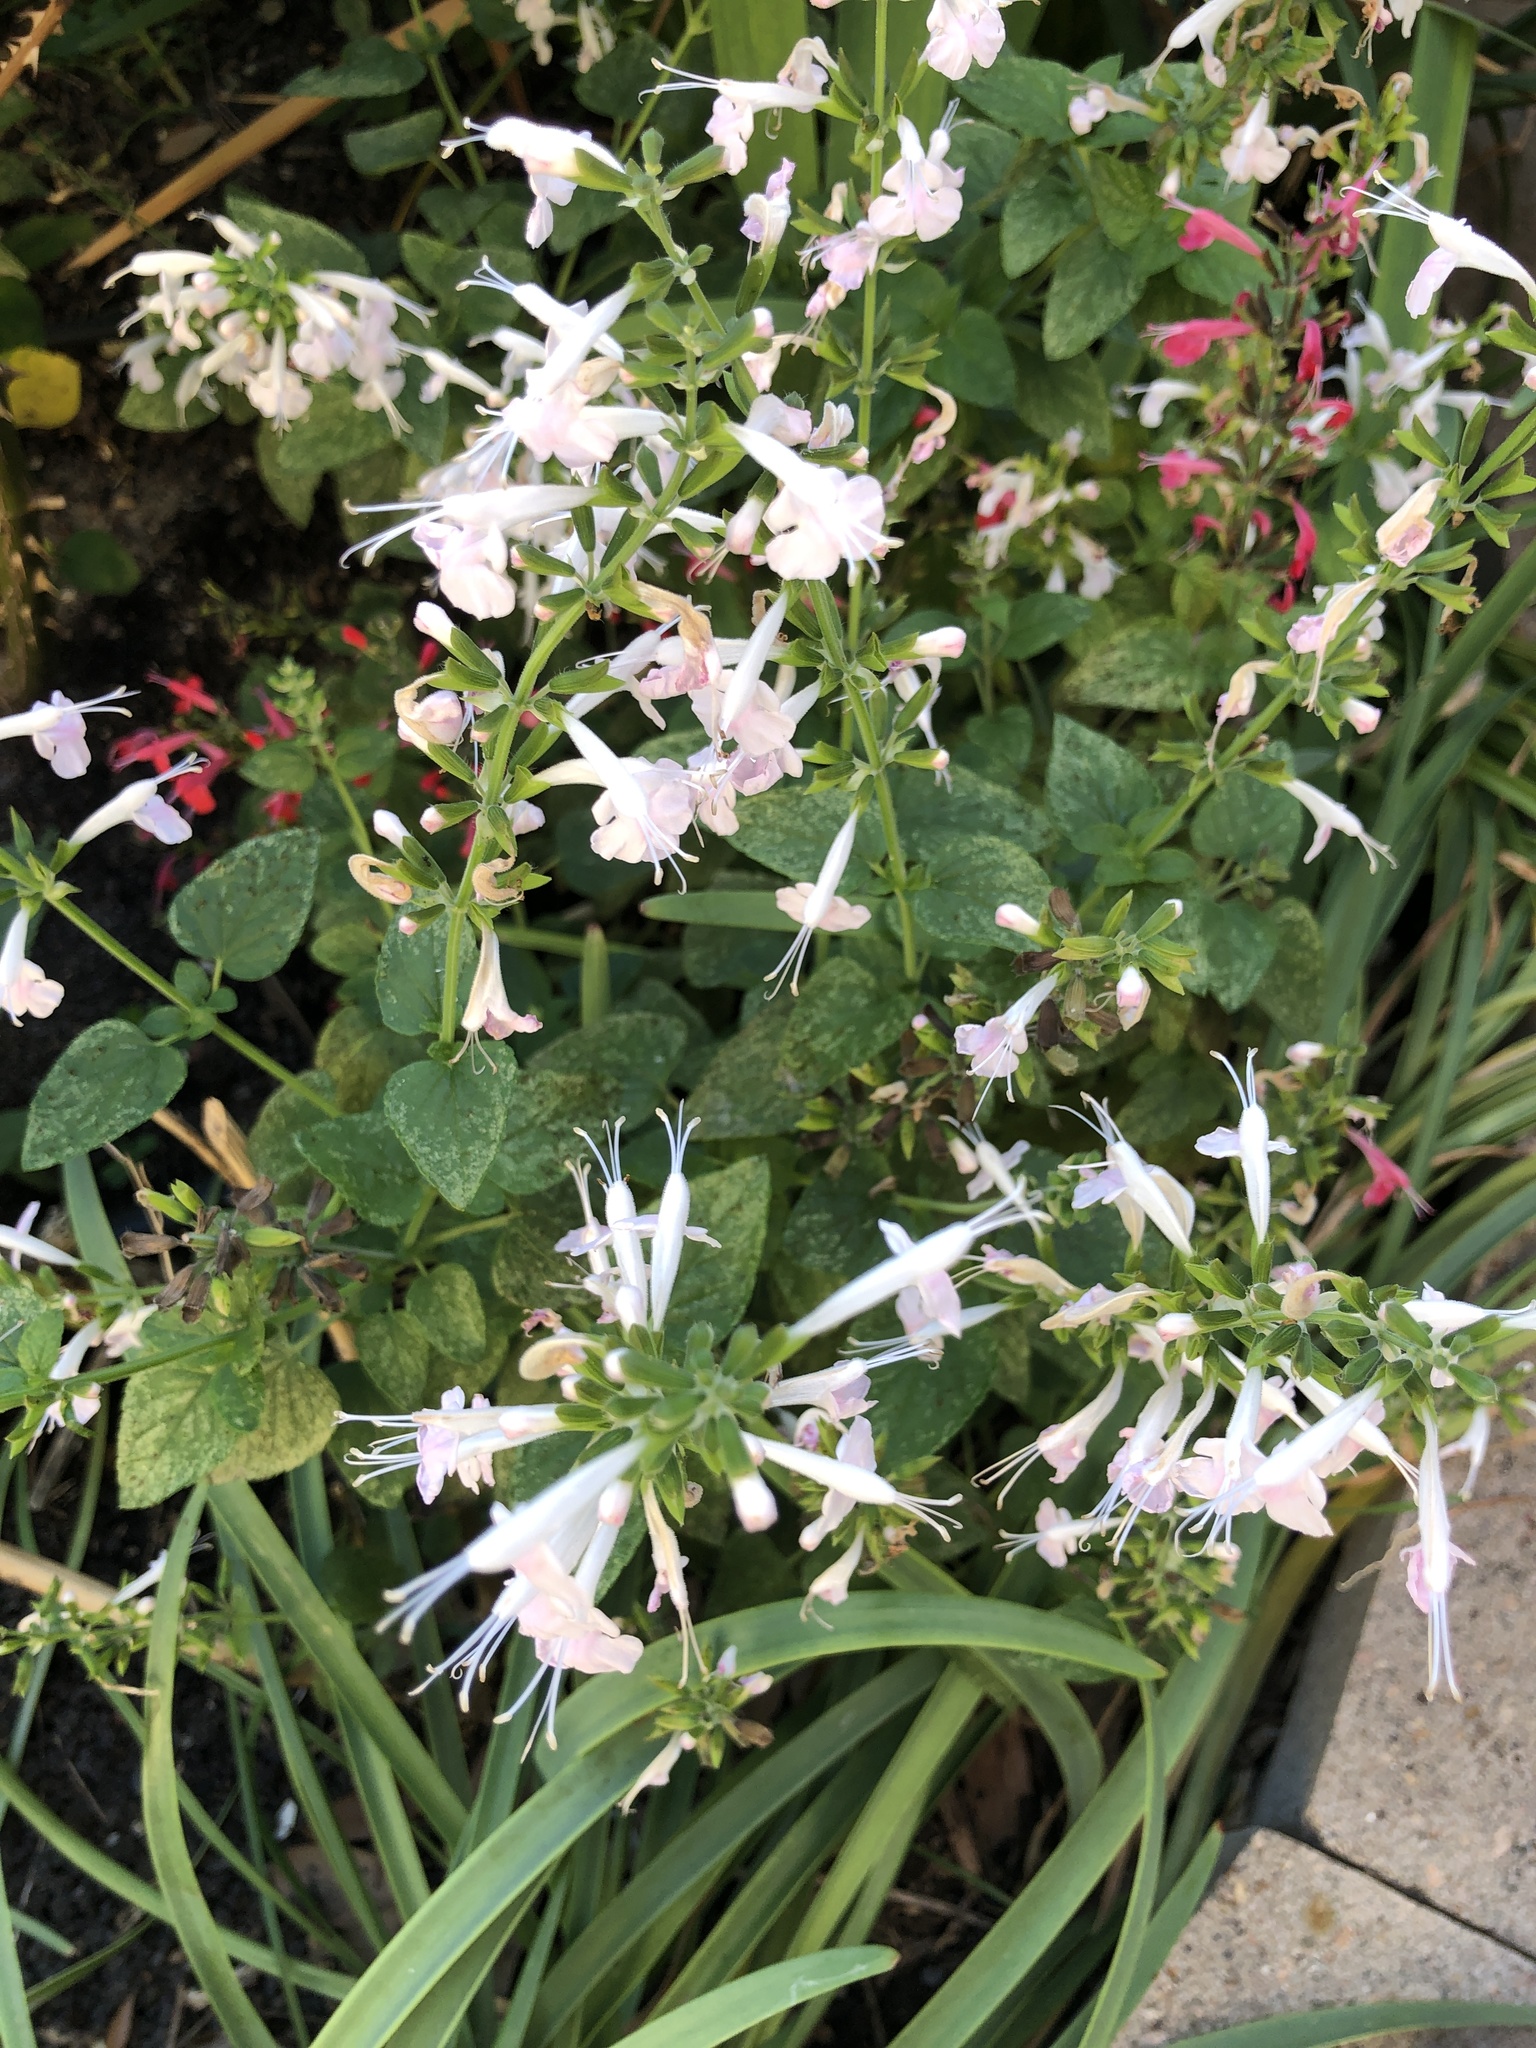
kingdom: Plantae
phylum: Tracheophyta
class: Magnoliopsida
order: Lamiales
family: Lamiaceae
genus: Salvia
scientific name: Salvia coccinea
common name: Blood sage
